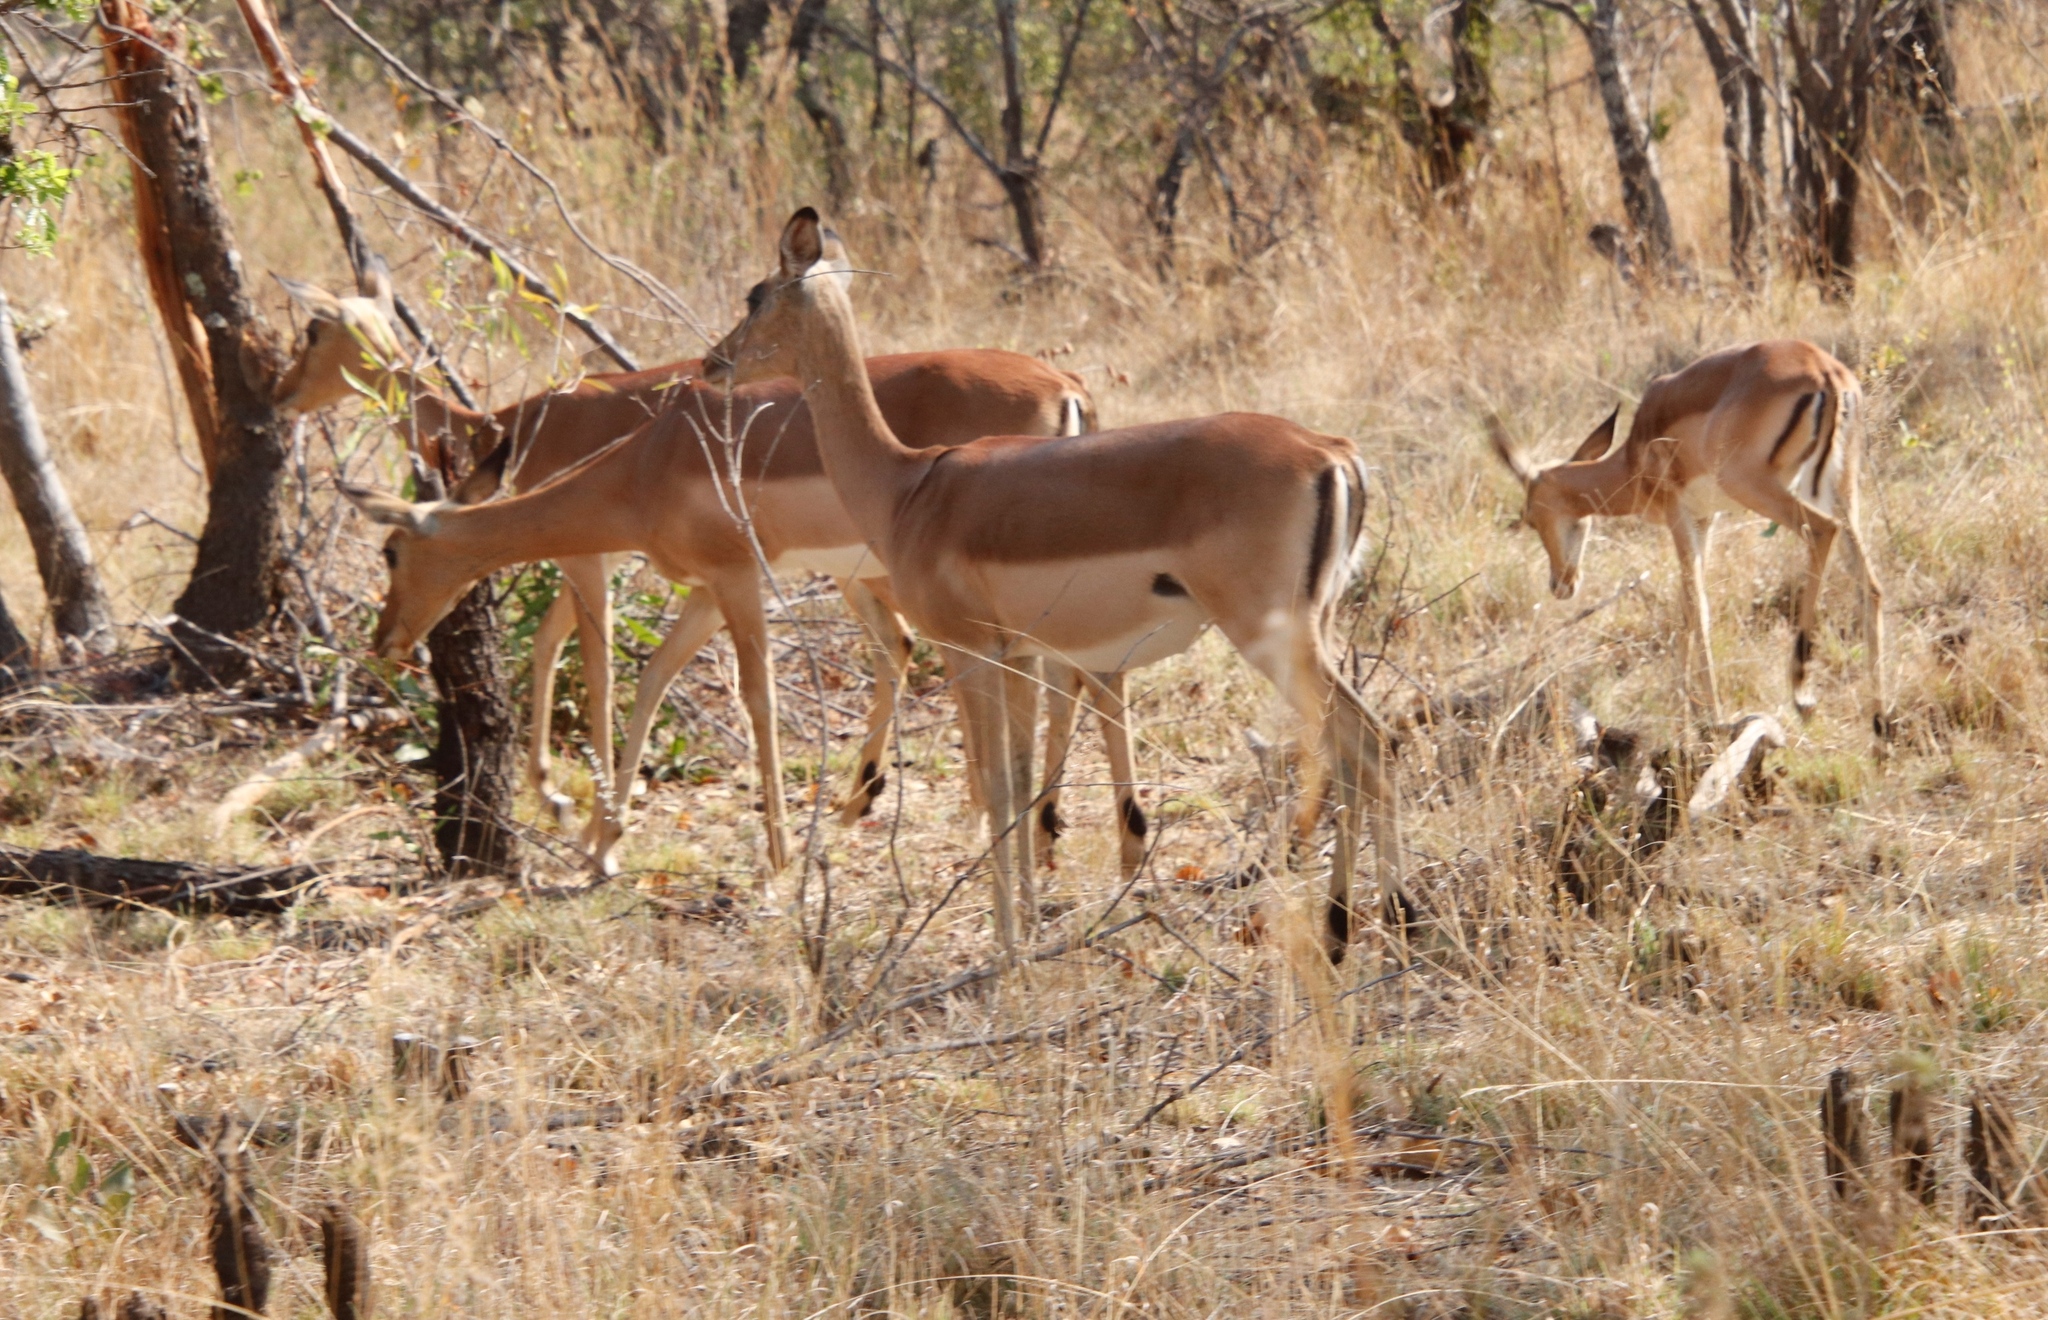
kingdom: Animalia
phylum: Chordata
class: Mammalia
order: Artiodactyla
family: Bovidae
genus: Aepyceros
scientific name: Aepyceros melampus
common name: Impala
